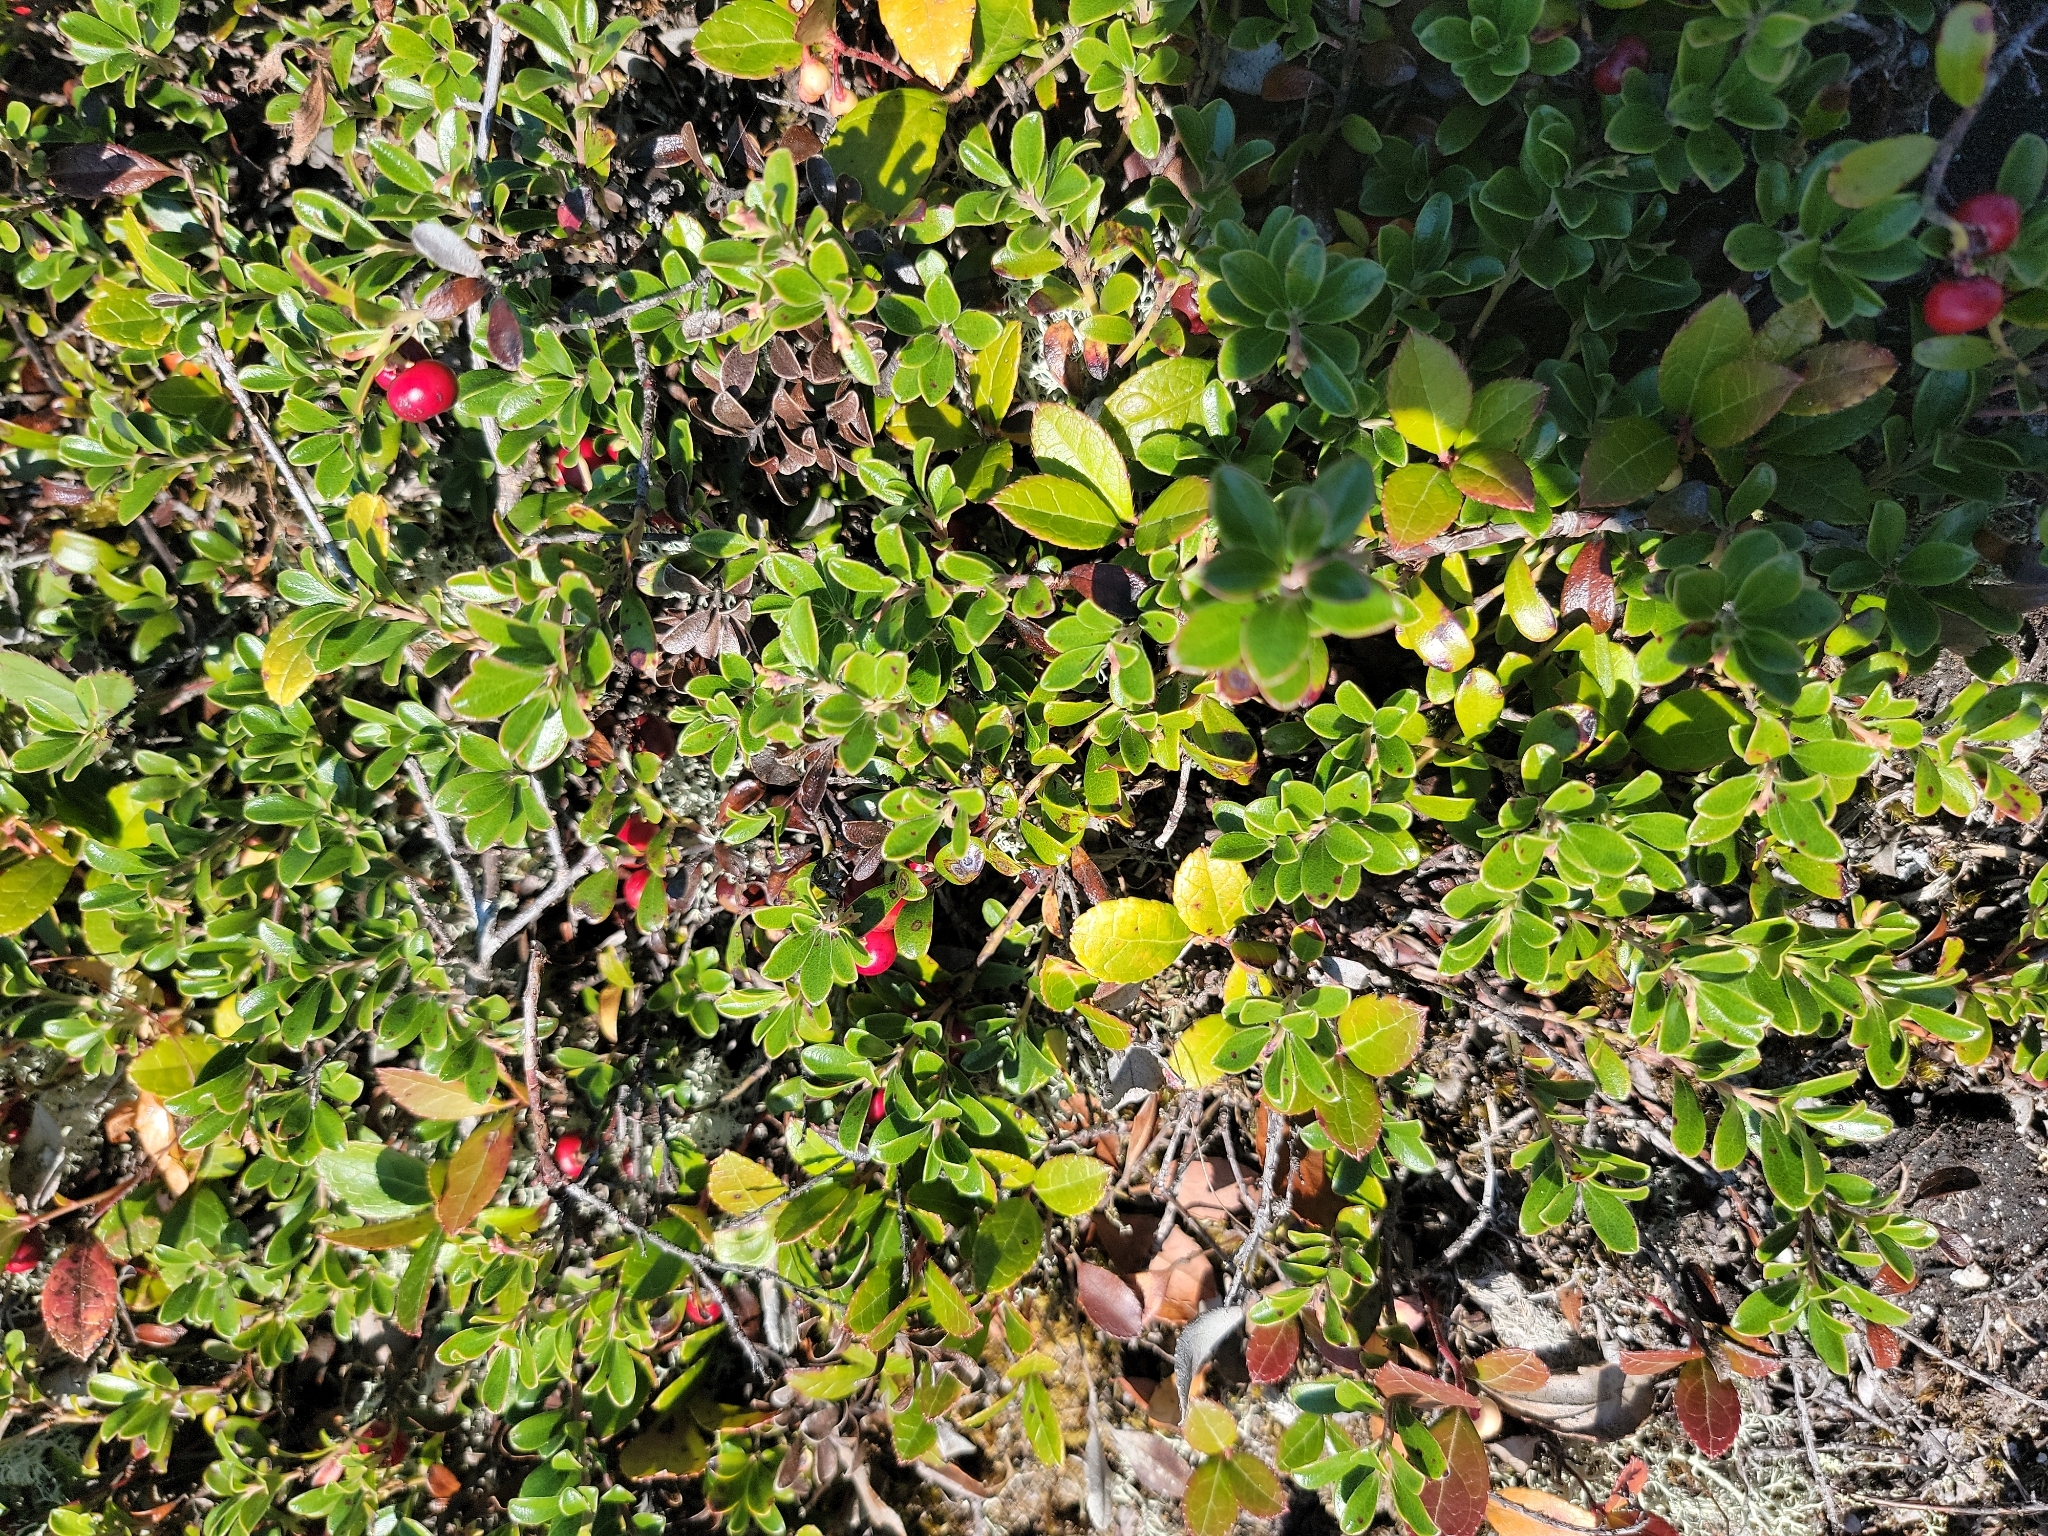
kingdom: Plantae
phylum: Tracheophyta
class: Magnoliopsida
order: Ericales
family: Ericaceae
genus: Arctostaphylos
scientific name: Arctostaphylos uva-ursi
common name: Bearberry
